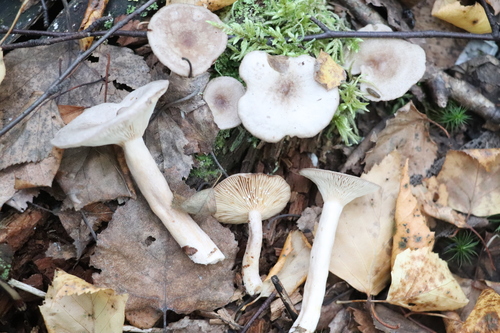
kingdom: Fungi
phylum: Basidiomycota
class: Agaricomycetes
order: Russulales
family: Russulaceae
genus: Lactarius
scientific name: Lactarius vietus
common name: Grey milk-cap
